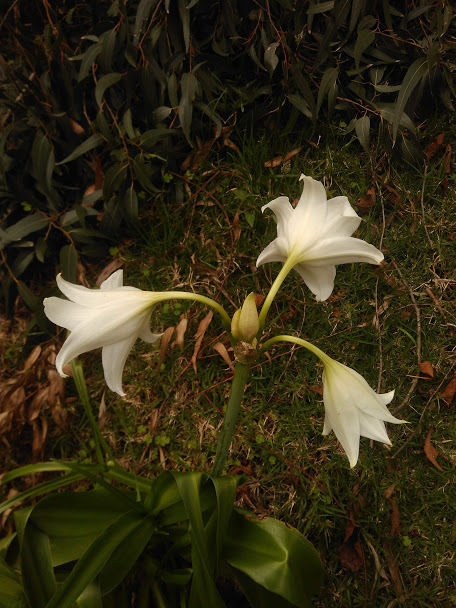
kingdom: Plantae
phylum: Tracheophyta
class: Liliopsida
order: Asparagales
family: Amaryllidaceae
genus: Crinum
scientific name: Crinum powellii
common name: Powell's cape-lily
